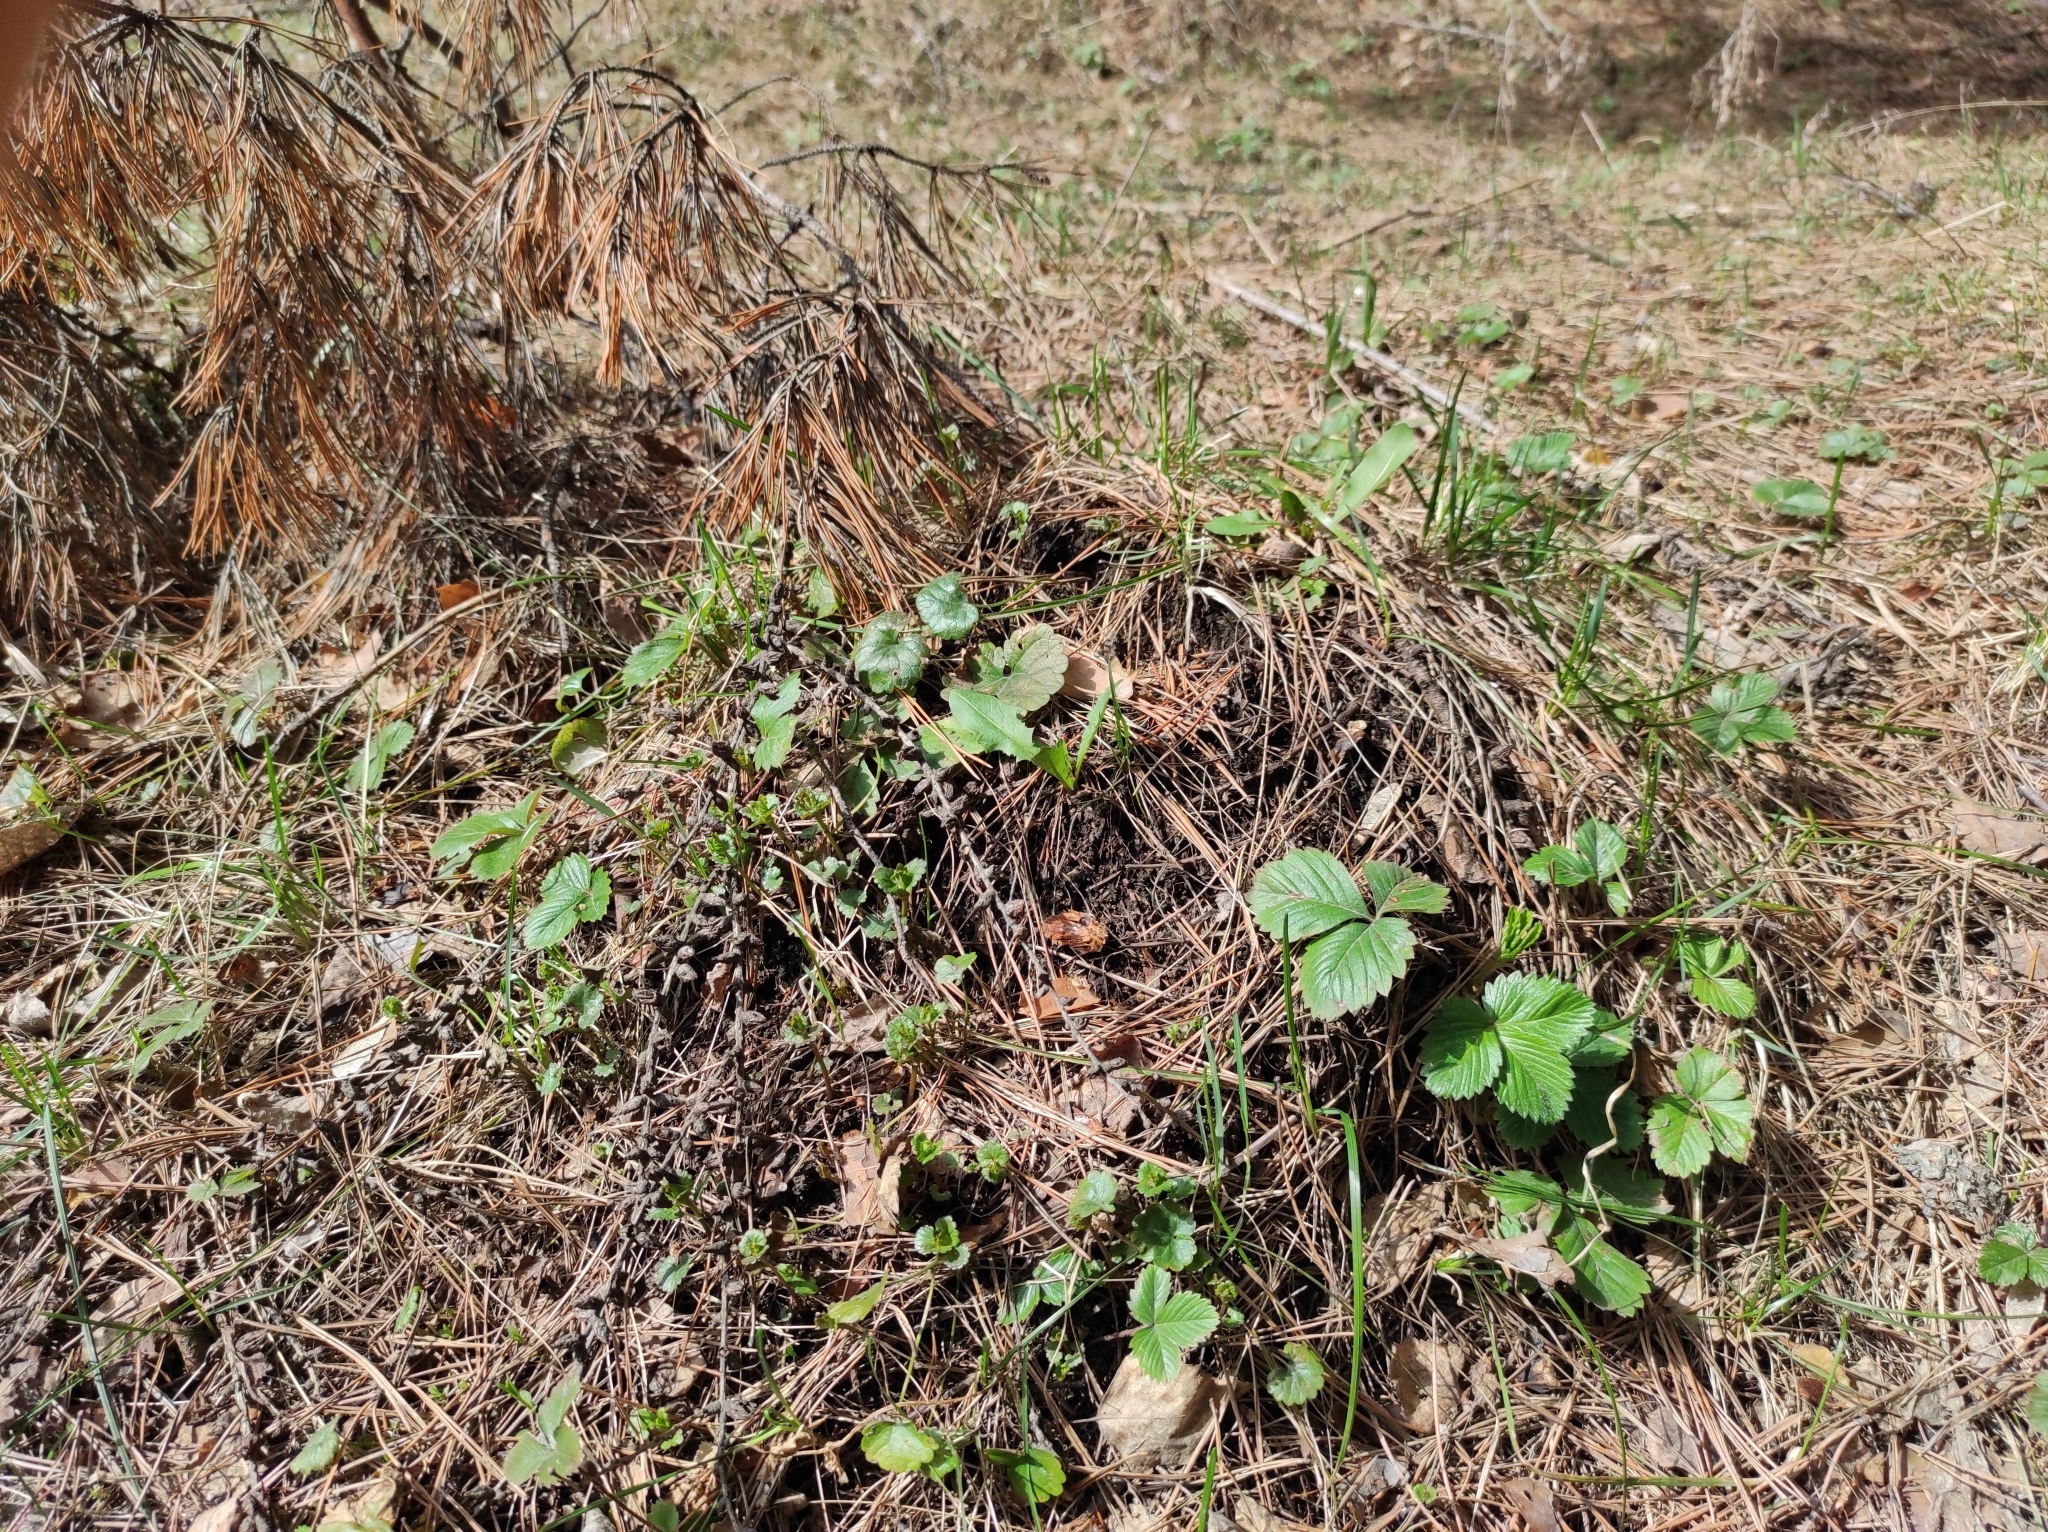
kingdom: Plantae
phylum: Tracheophyta
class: Magnoliopsida
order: Rosales
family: Rosaceae
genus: Fragaria
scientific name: Fragaria vesca
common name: Wild strawberry
